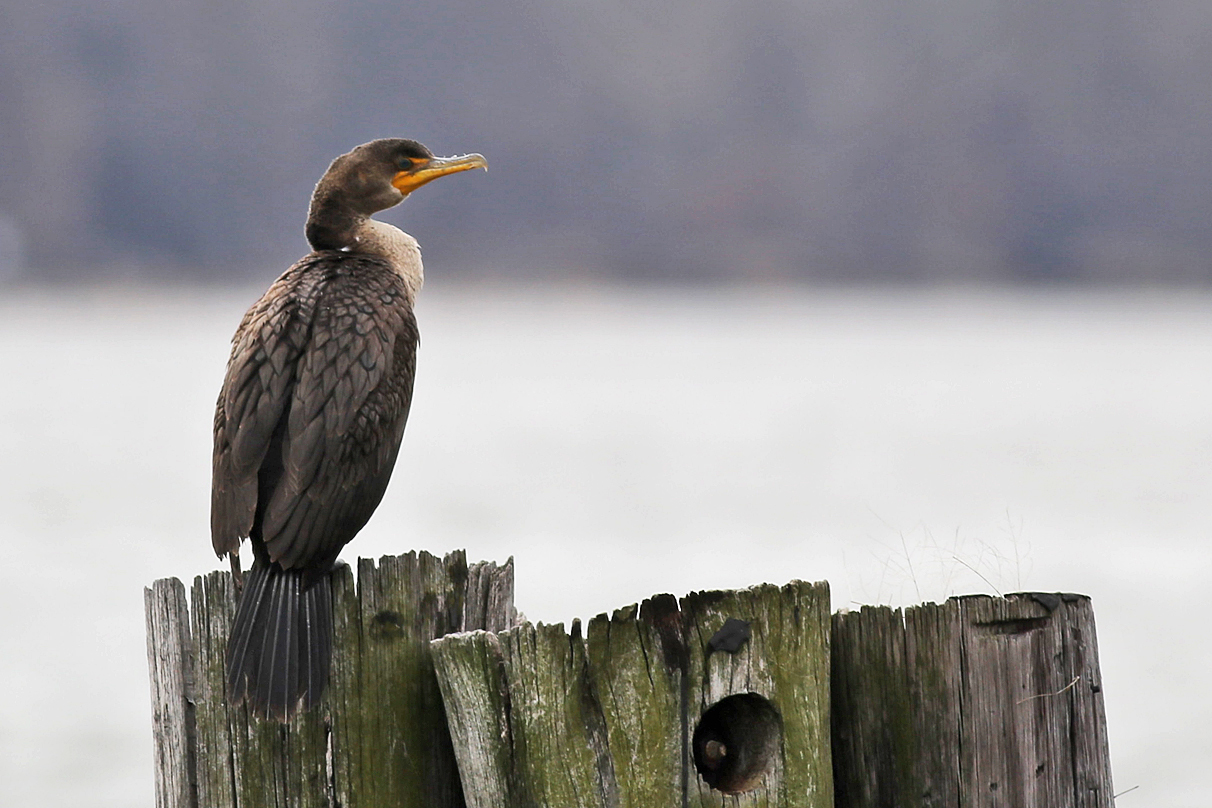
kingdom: Animalia
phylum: Chordata
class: Aves
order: Suliformes
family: Phalacrocoracidae
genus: Phalacrocorax
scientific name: Phalacrocorax auritus
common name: Double-crested cormorant
